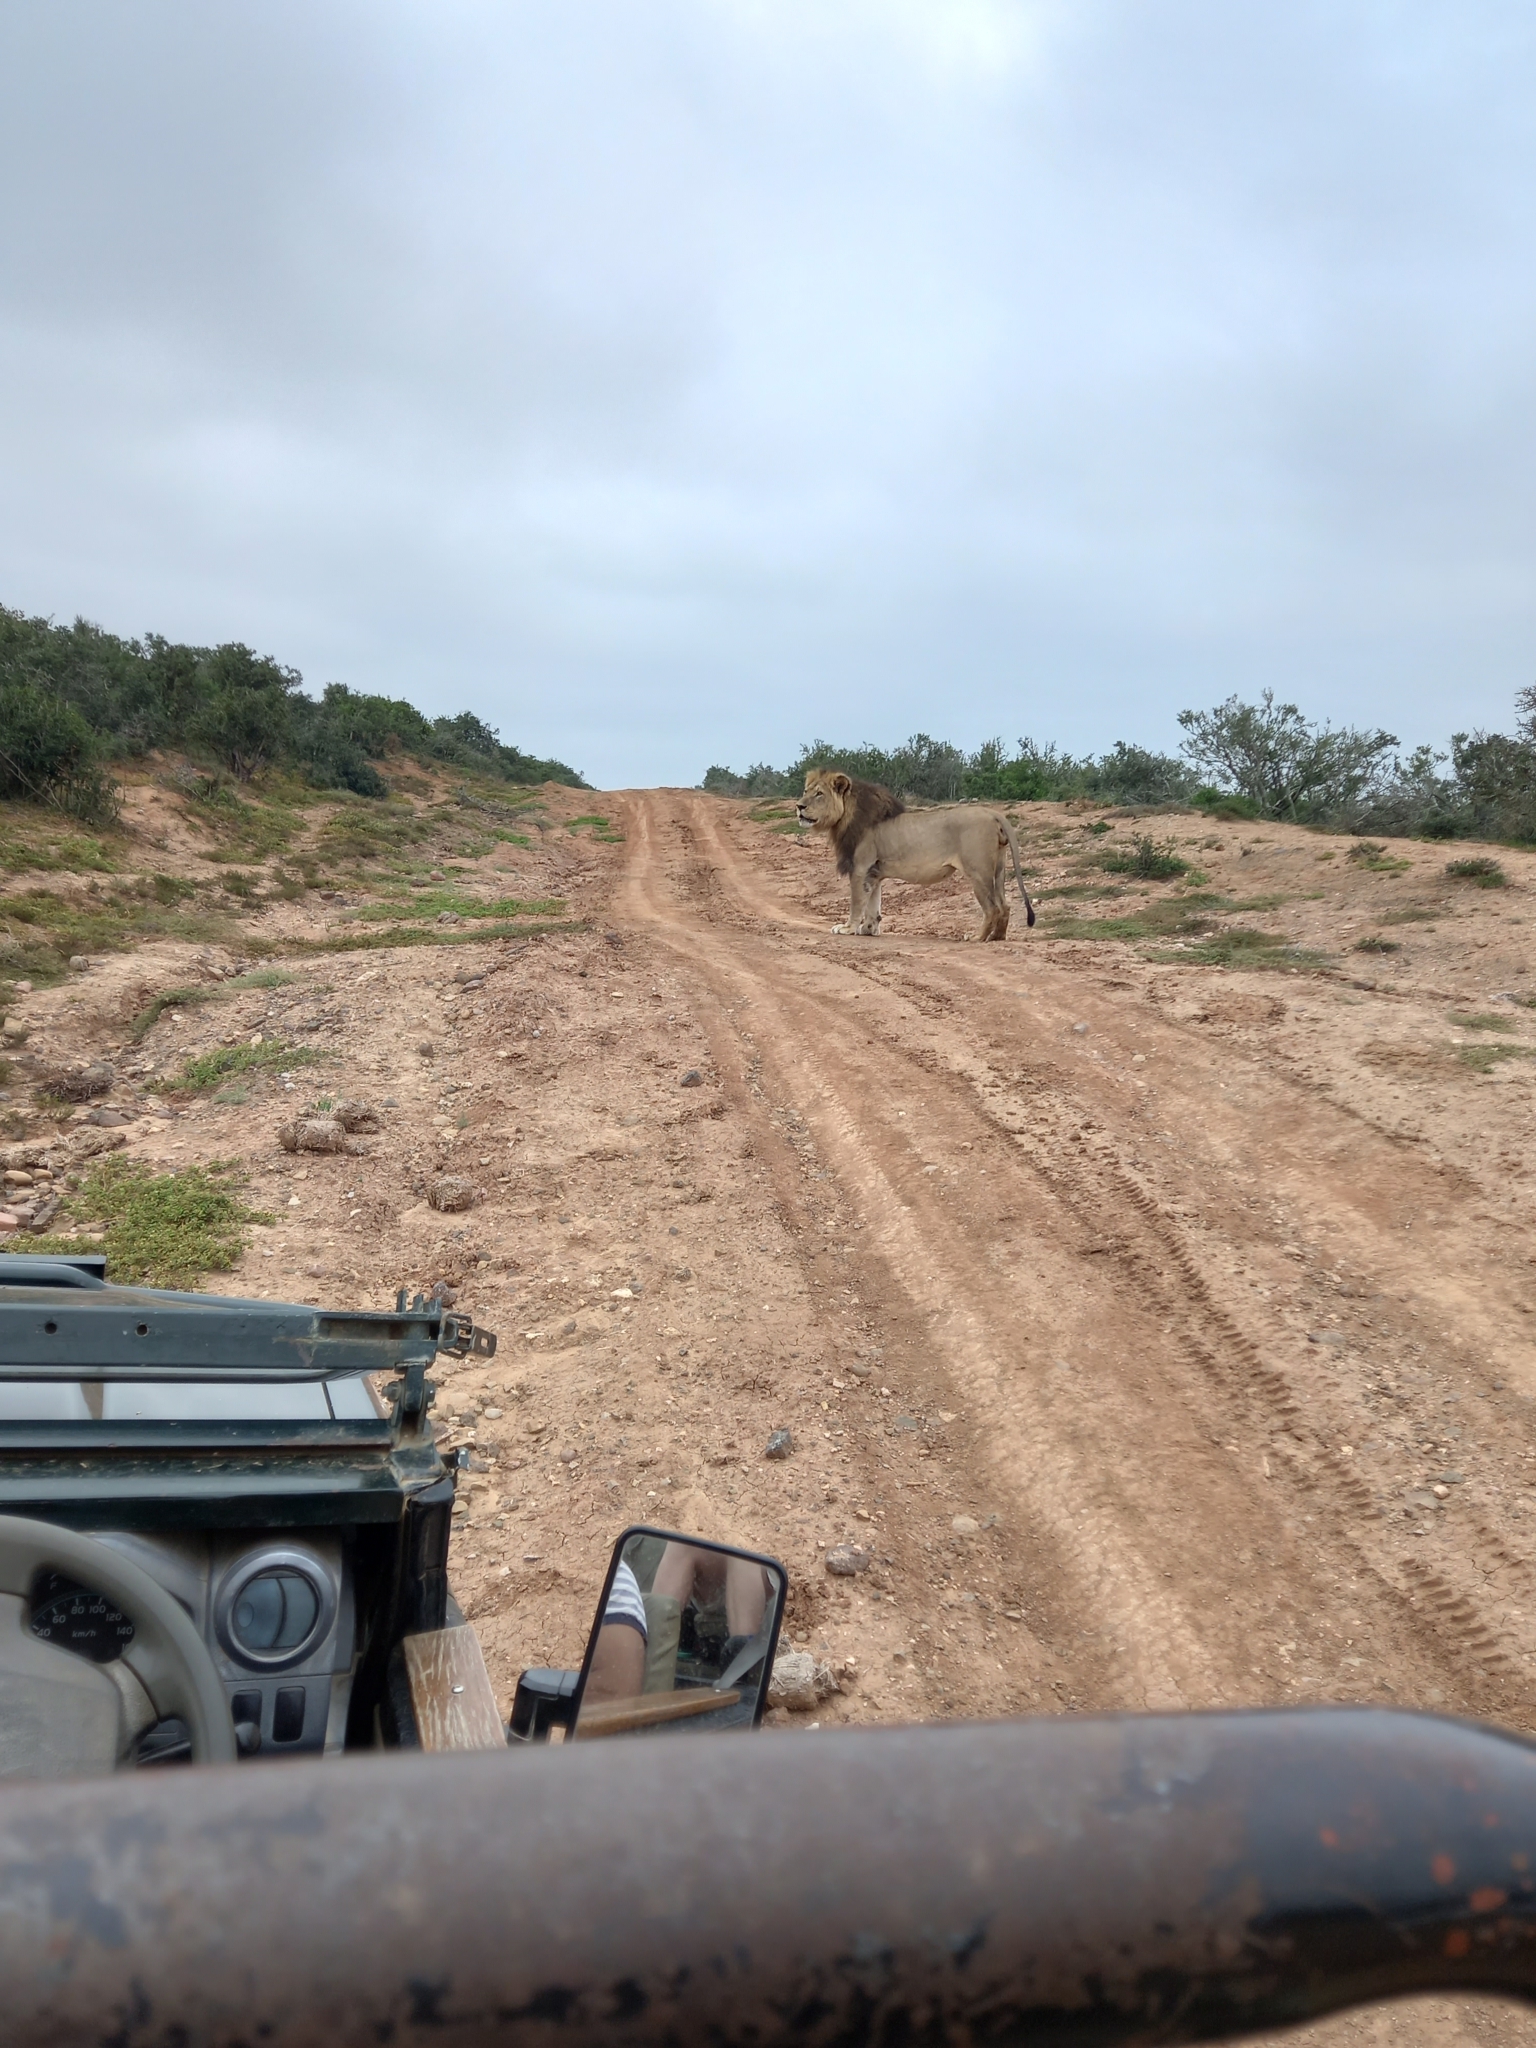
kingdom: Animalia
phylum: Chordata
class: Mammalia
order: Carnivora
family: Felidae
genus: Panthera
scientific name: Panthera leo
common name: Lion
